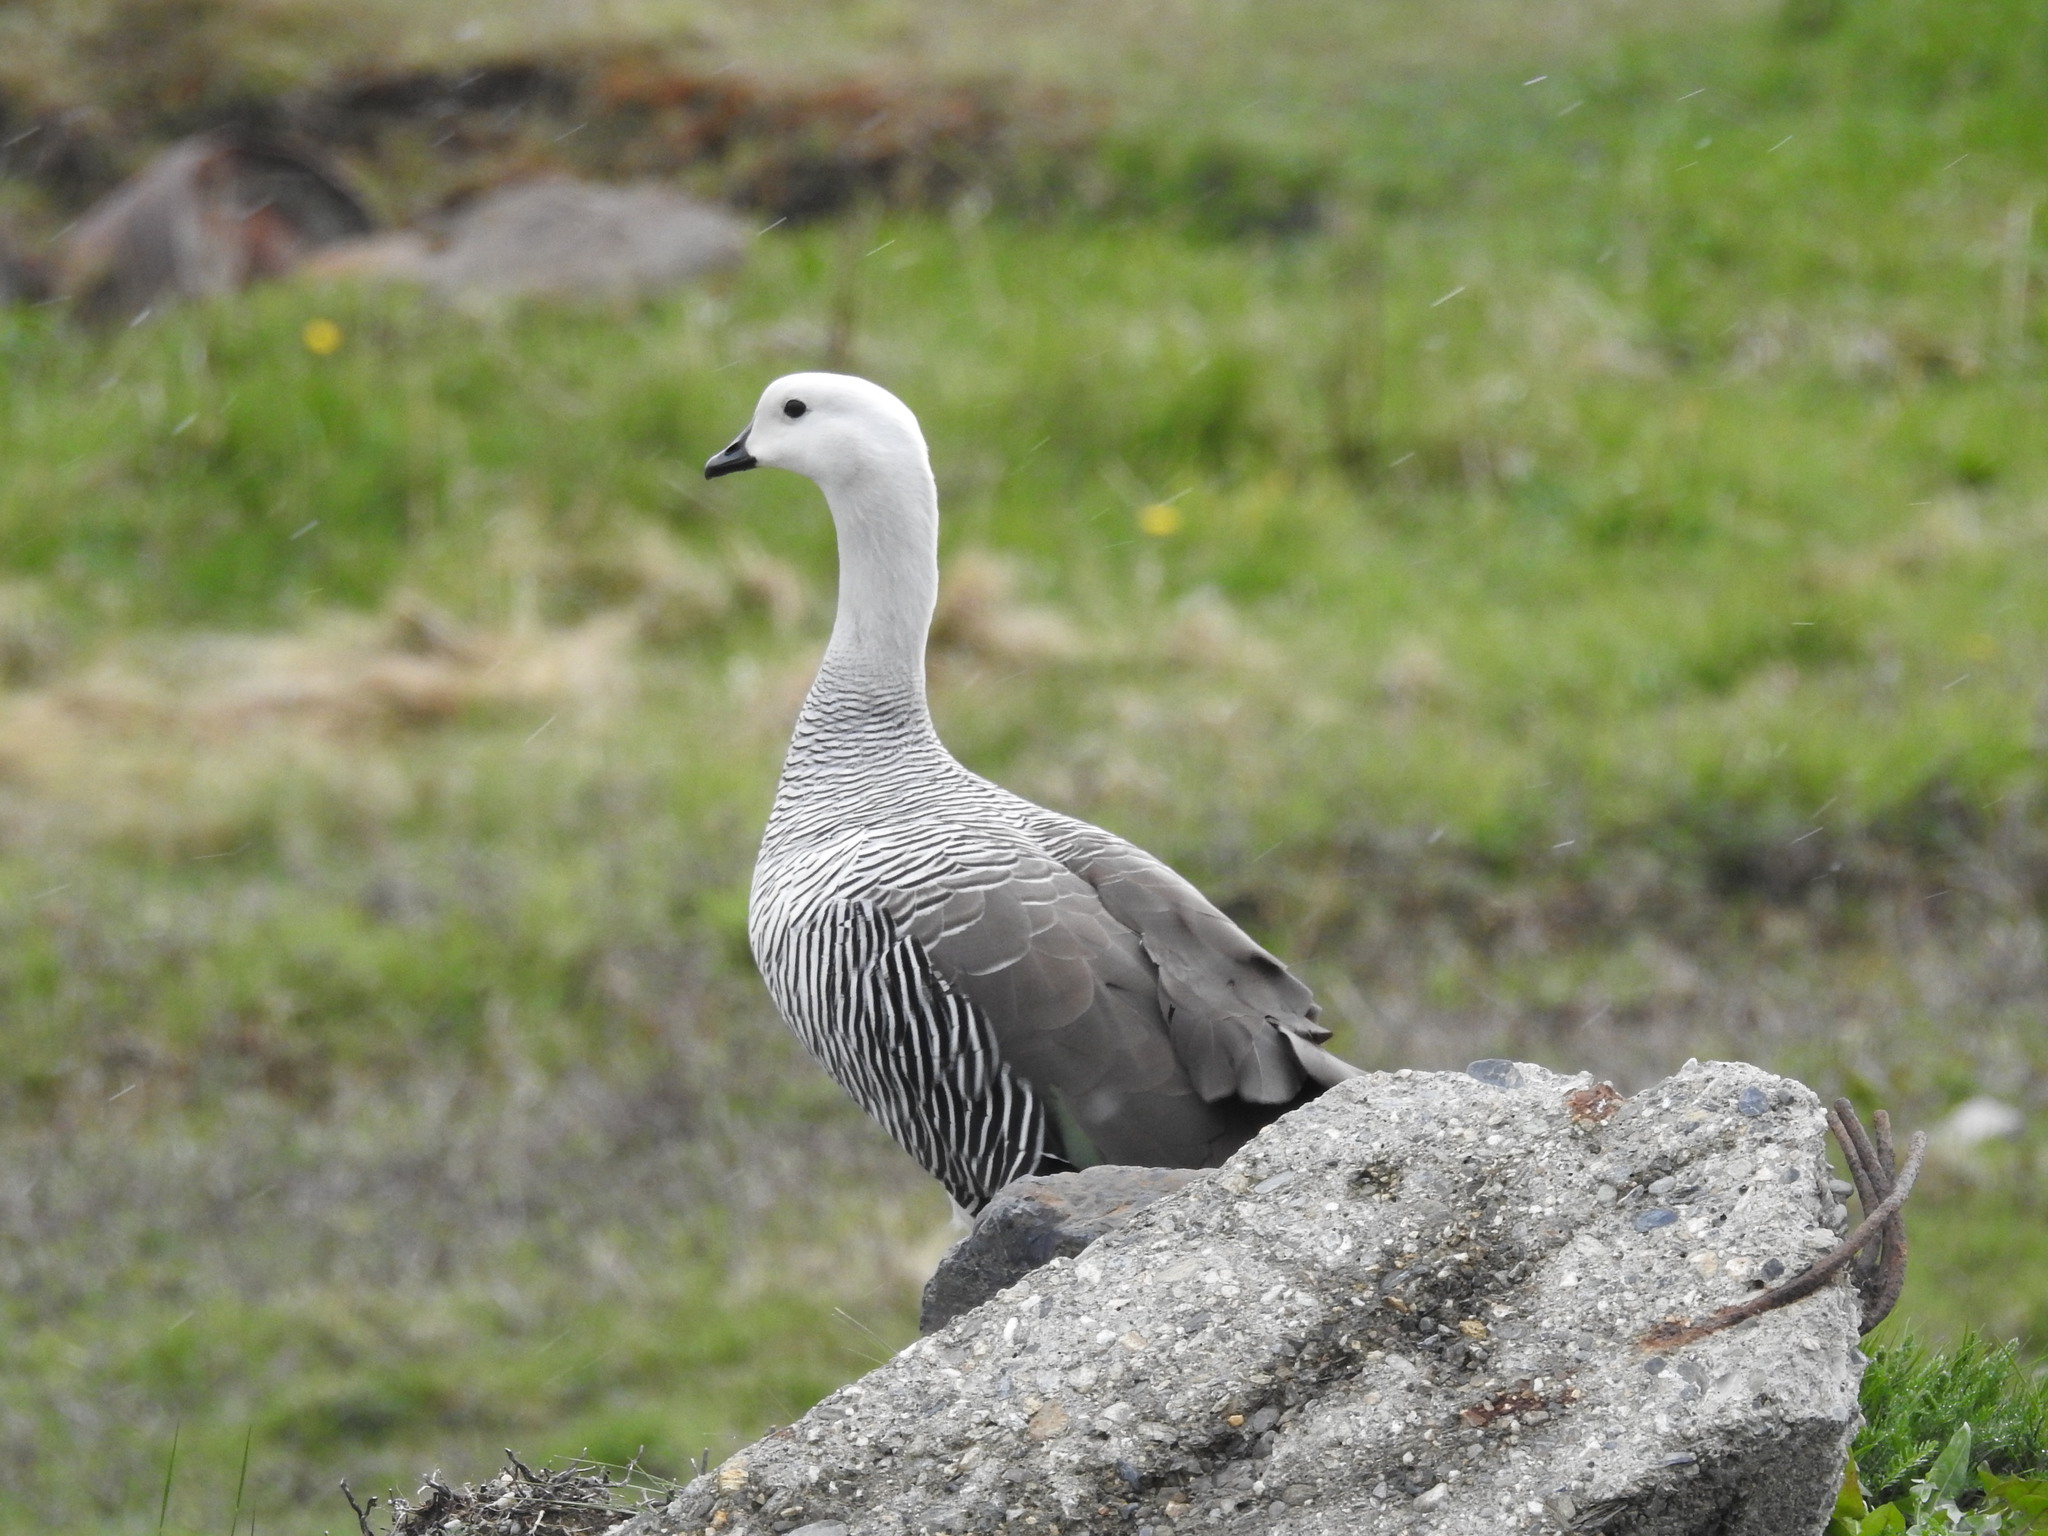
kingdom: Animalia
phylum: Chordata
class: Aves
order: Anseriformes
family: Anatidae
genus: Chloephaga
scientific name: Chloephaga picta
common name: Upland goose
